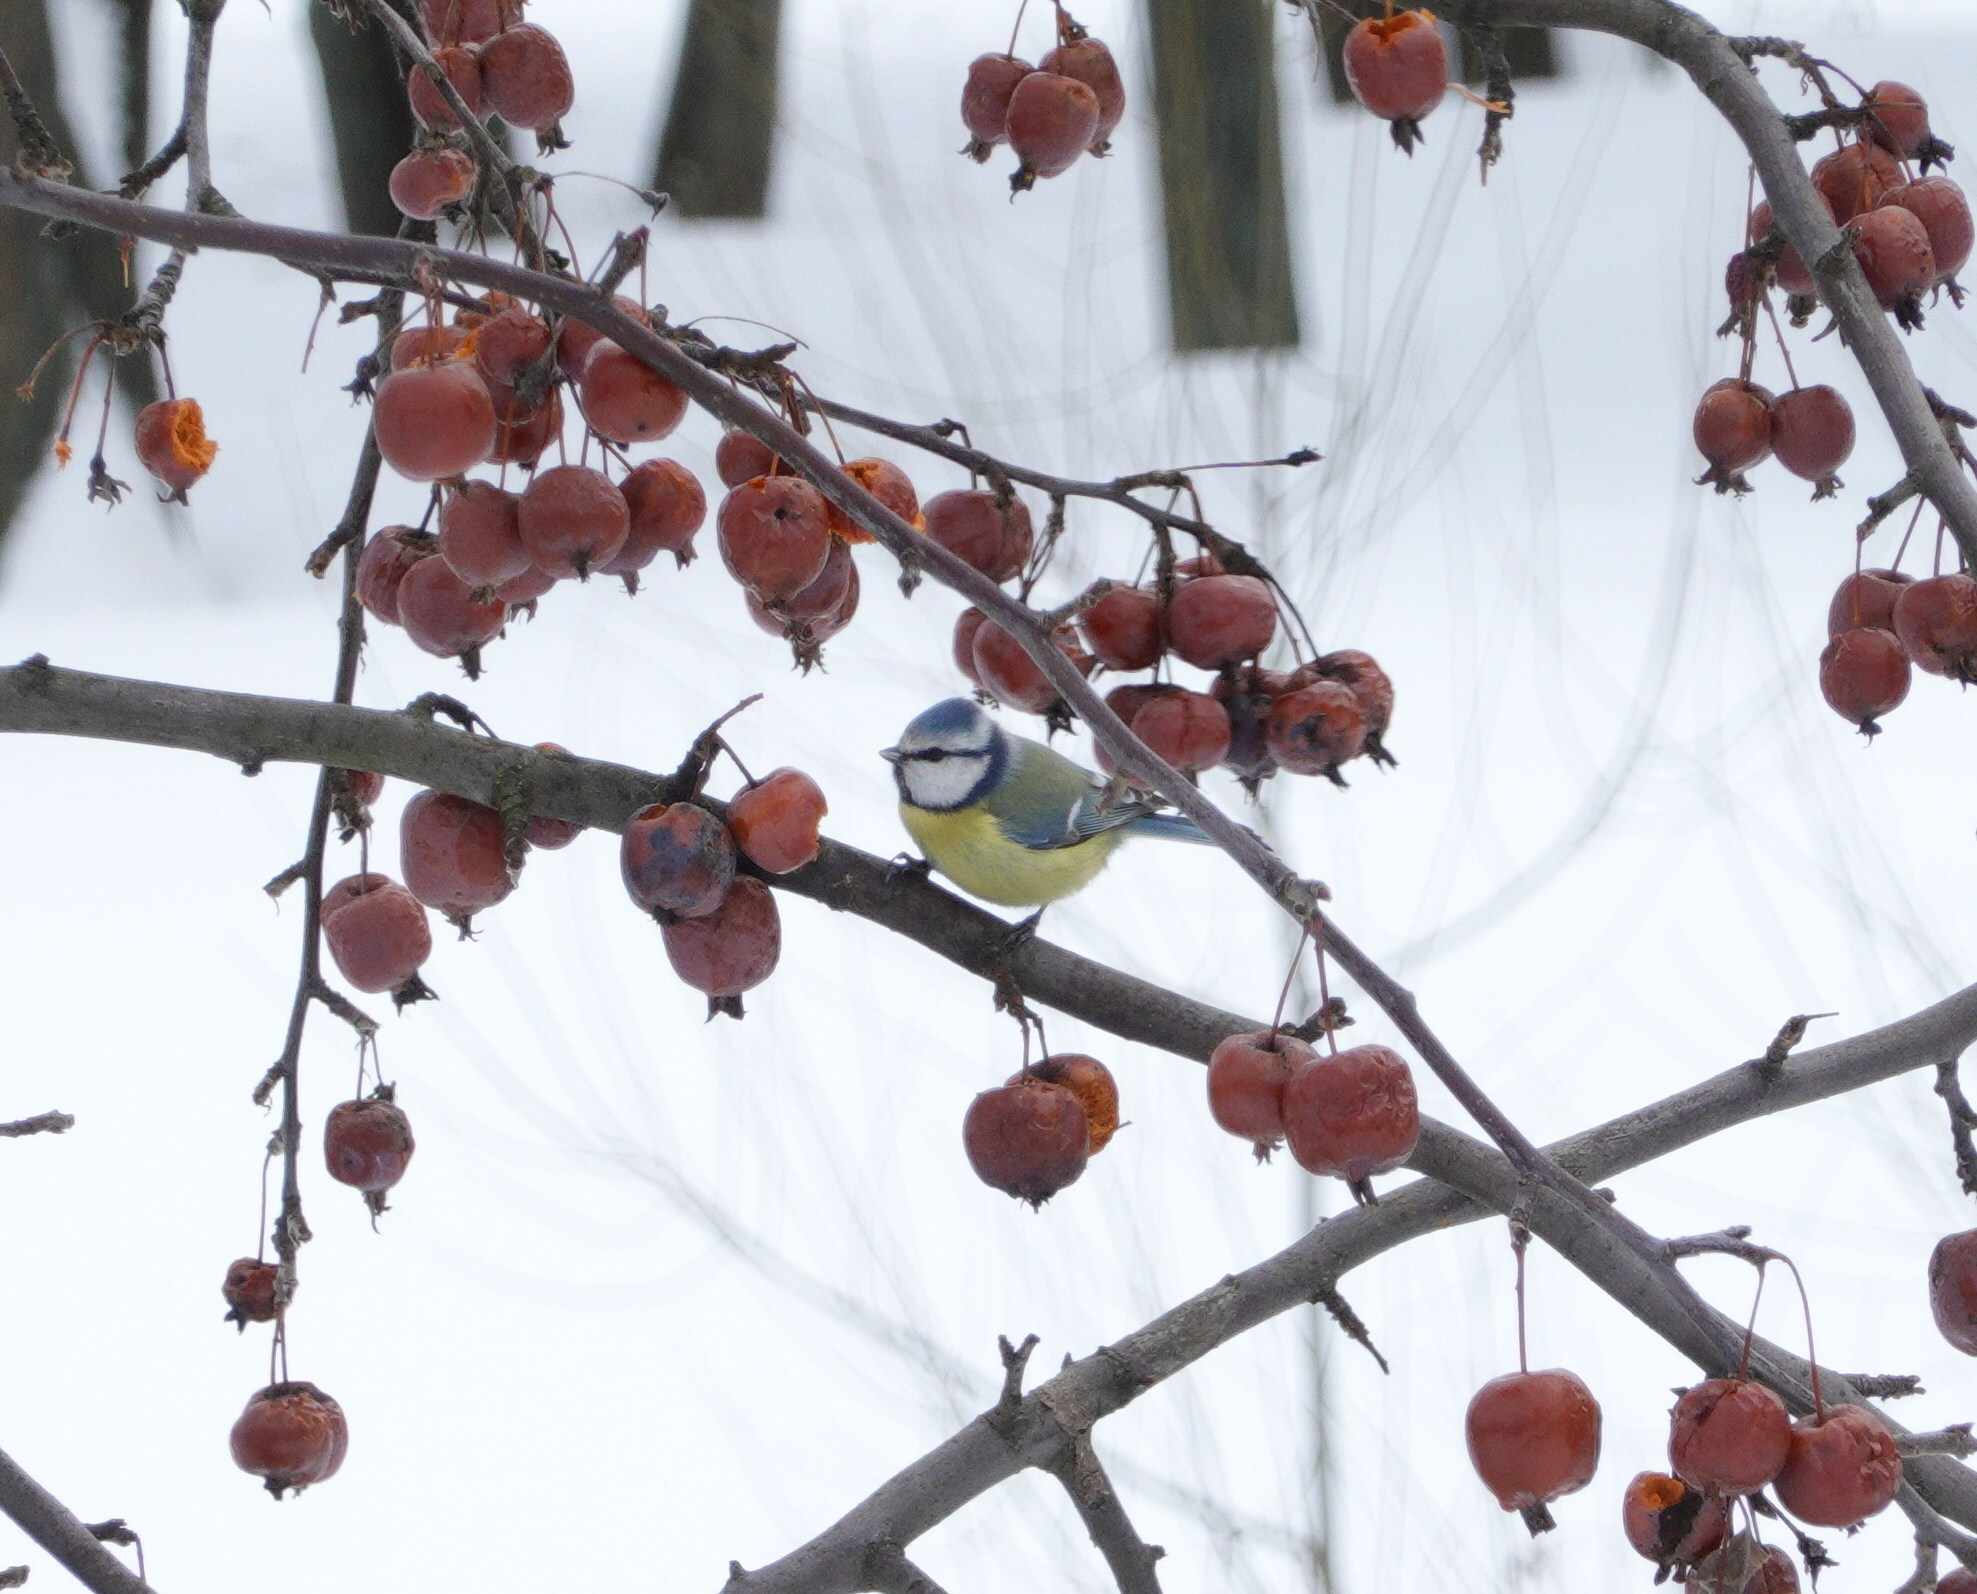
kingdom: Animalia
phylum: Chordata
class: Aves
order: Passeriformes
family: Paridae
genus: Cyanistes
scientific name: Cyanistes caeruleus
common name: Eurasian blue tit
